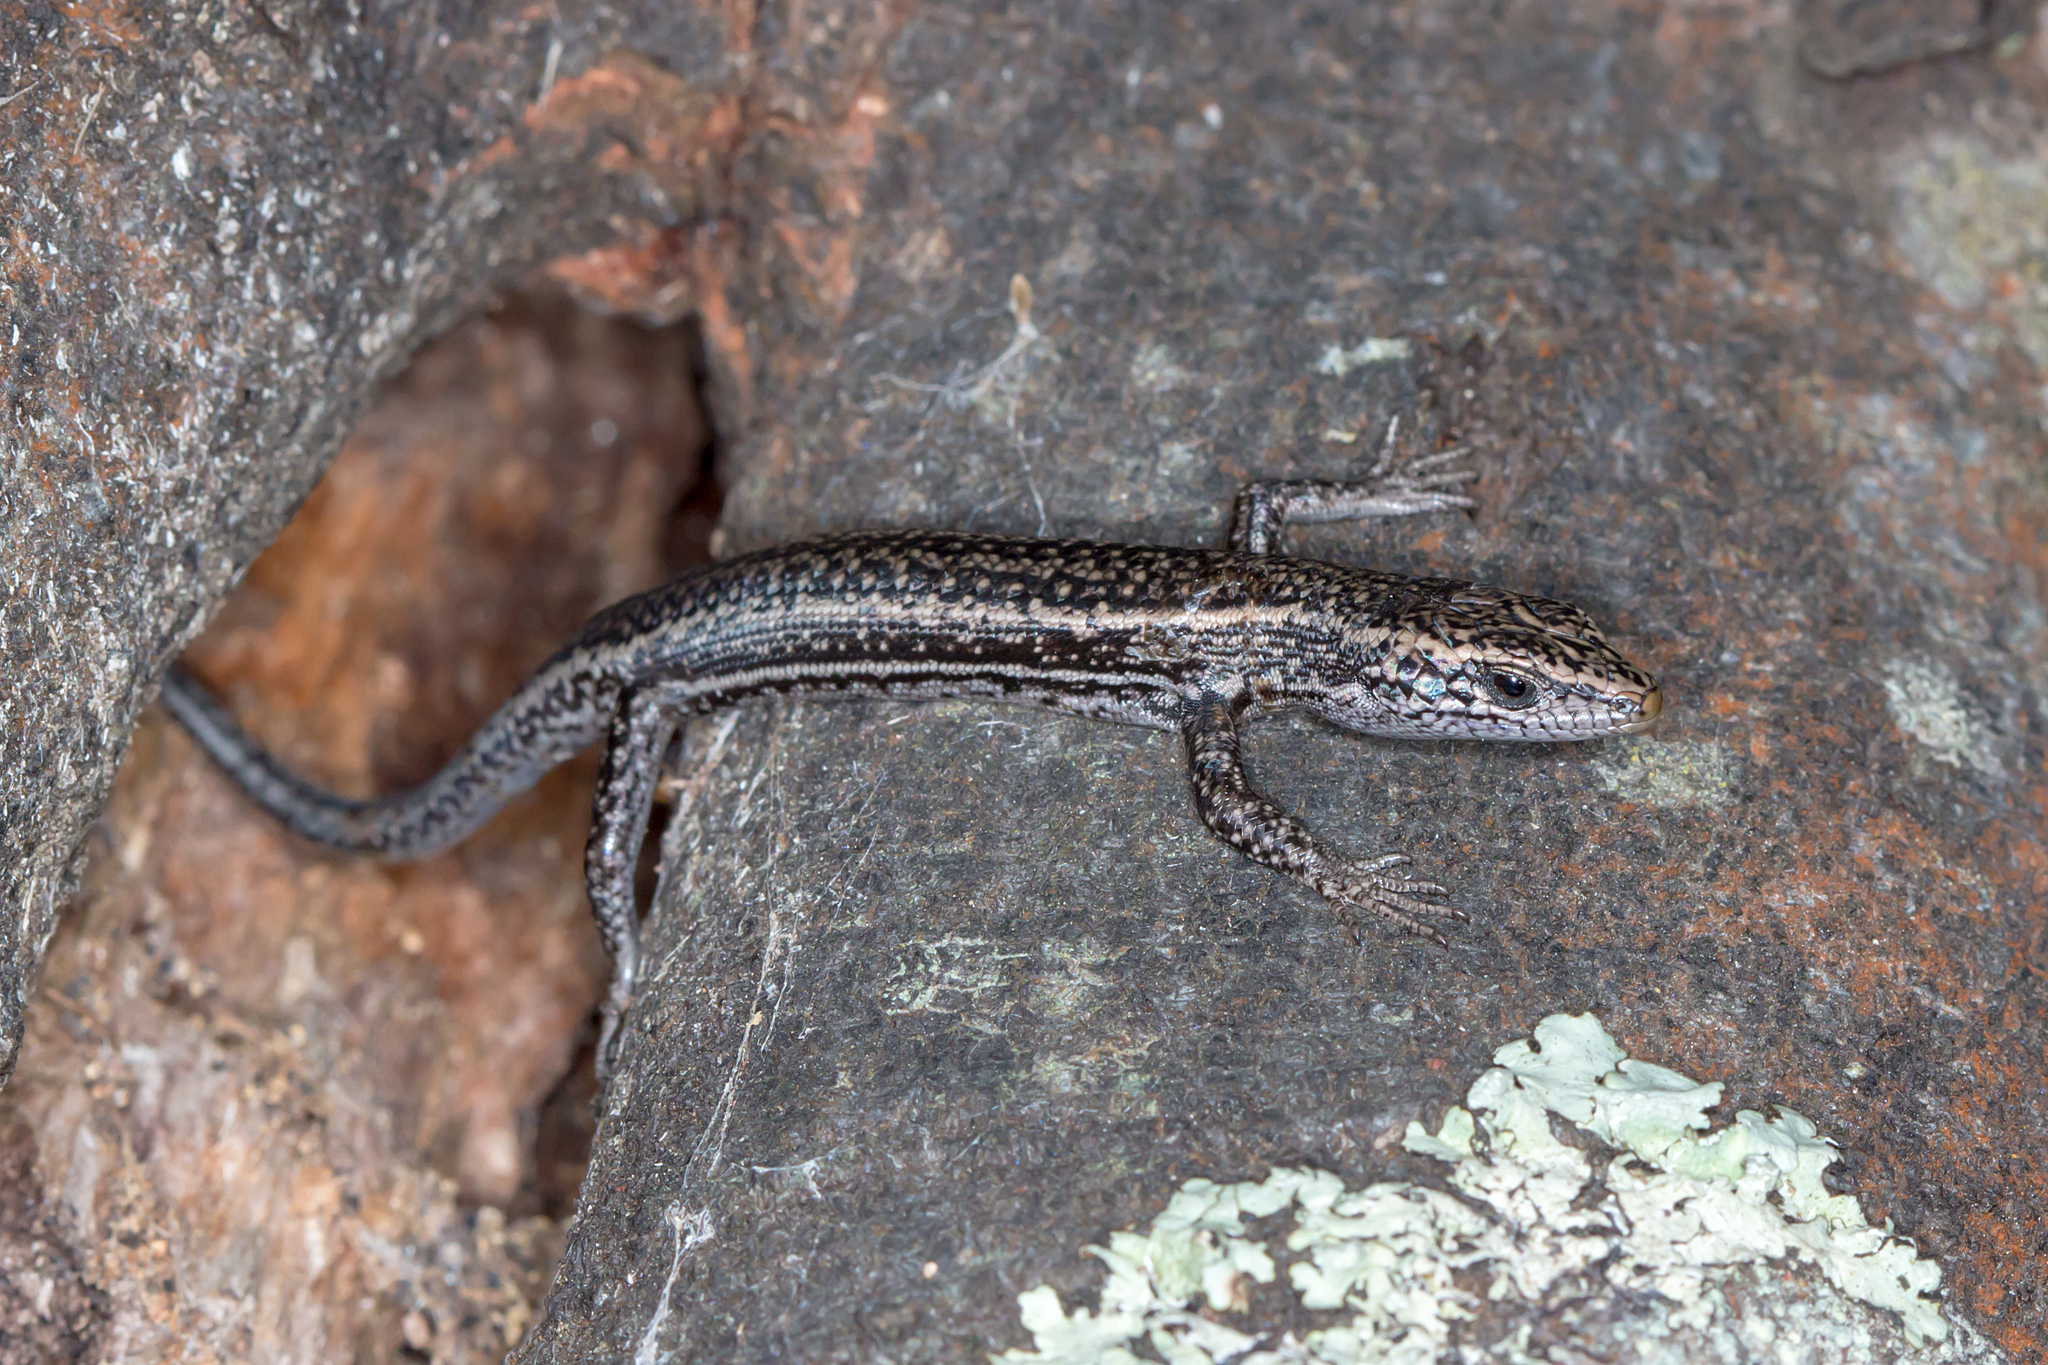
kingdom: Animalia
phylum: Chordata
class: Squamata
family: Scincidae
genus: Pseudemoia
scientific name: Pseudemoia spenceri
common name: Trunk-climbing cool-skink
